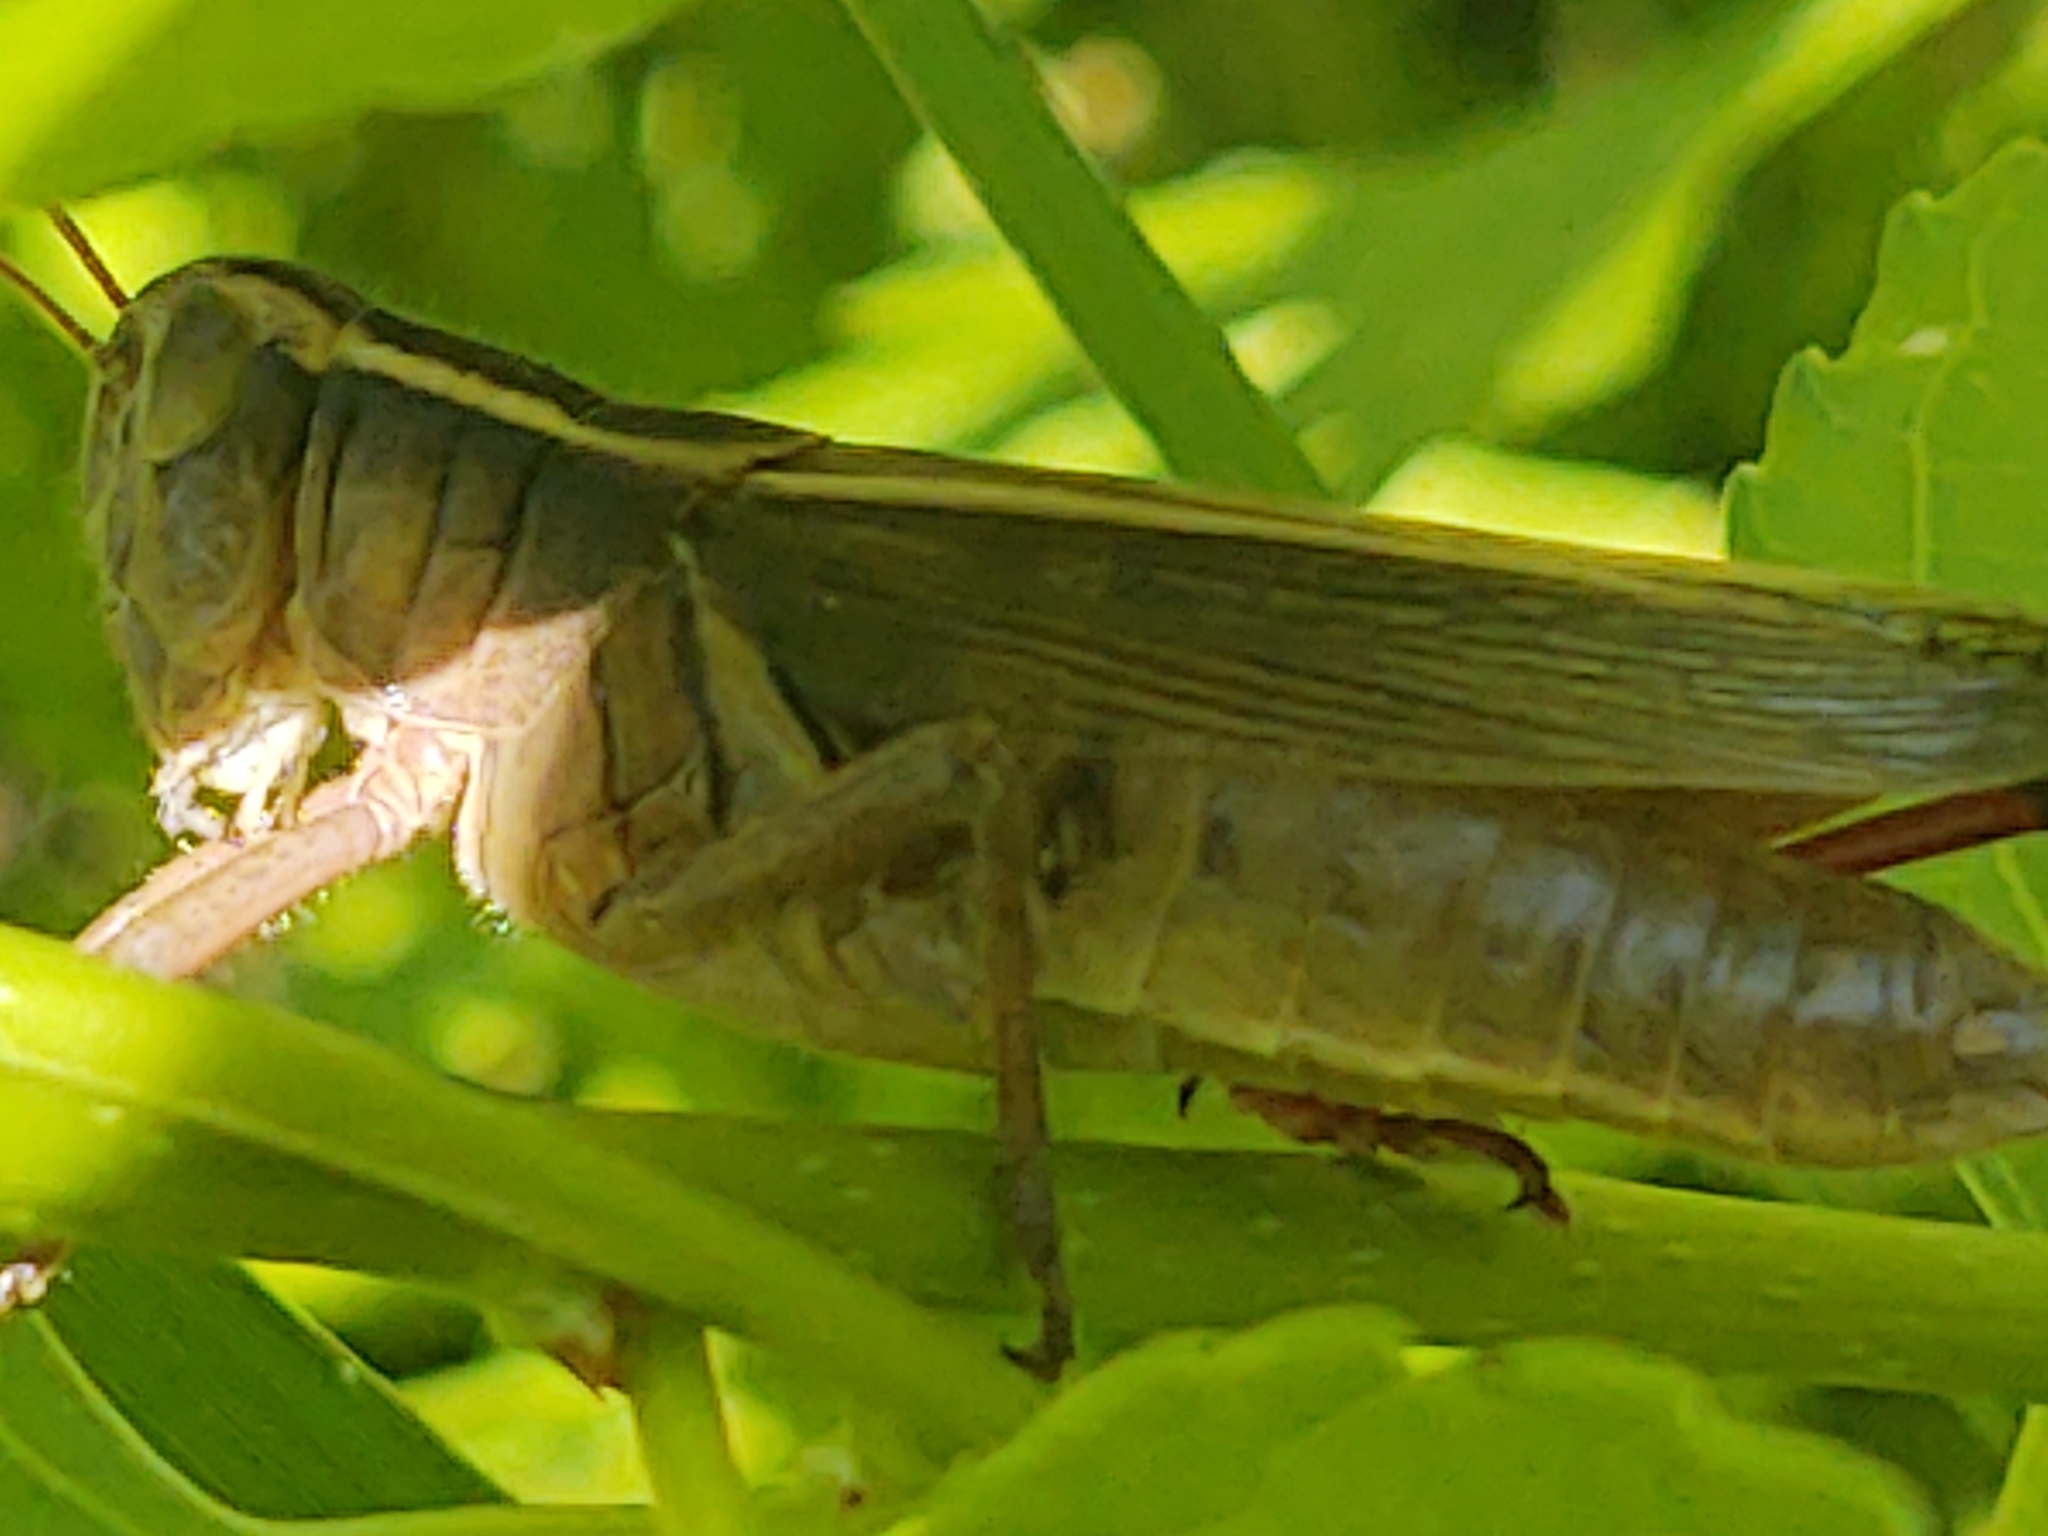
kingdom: Animalia
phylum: Arthropoda
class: Insecta
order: Orthoptera
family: Acrididae
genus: Melanoplus
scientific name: Melanoplus bivittatus
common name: Two-striped grasshopper
